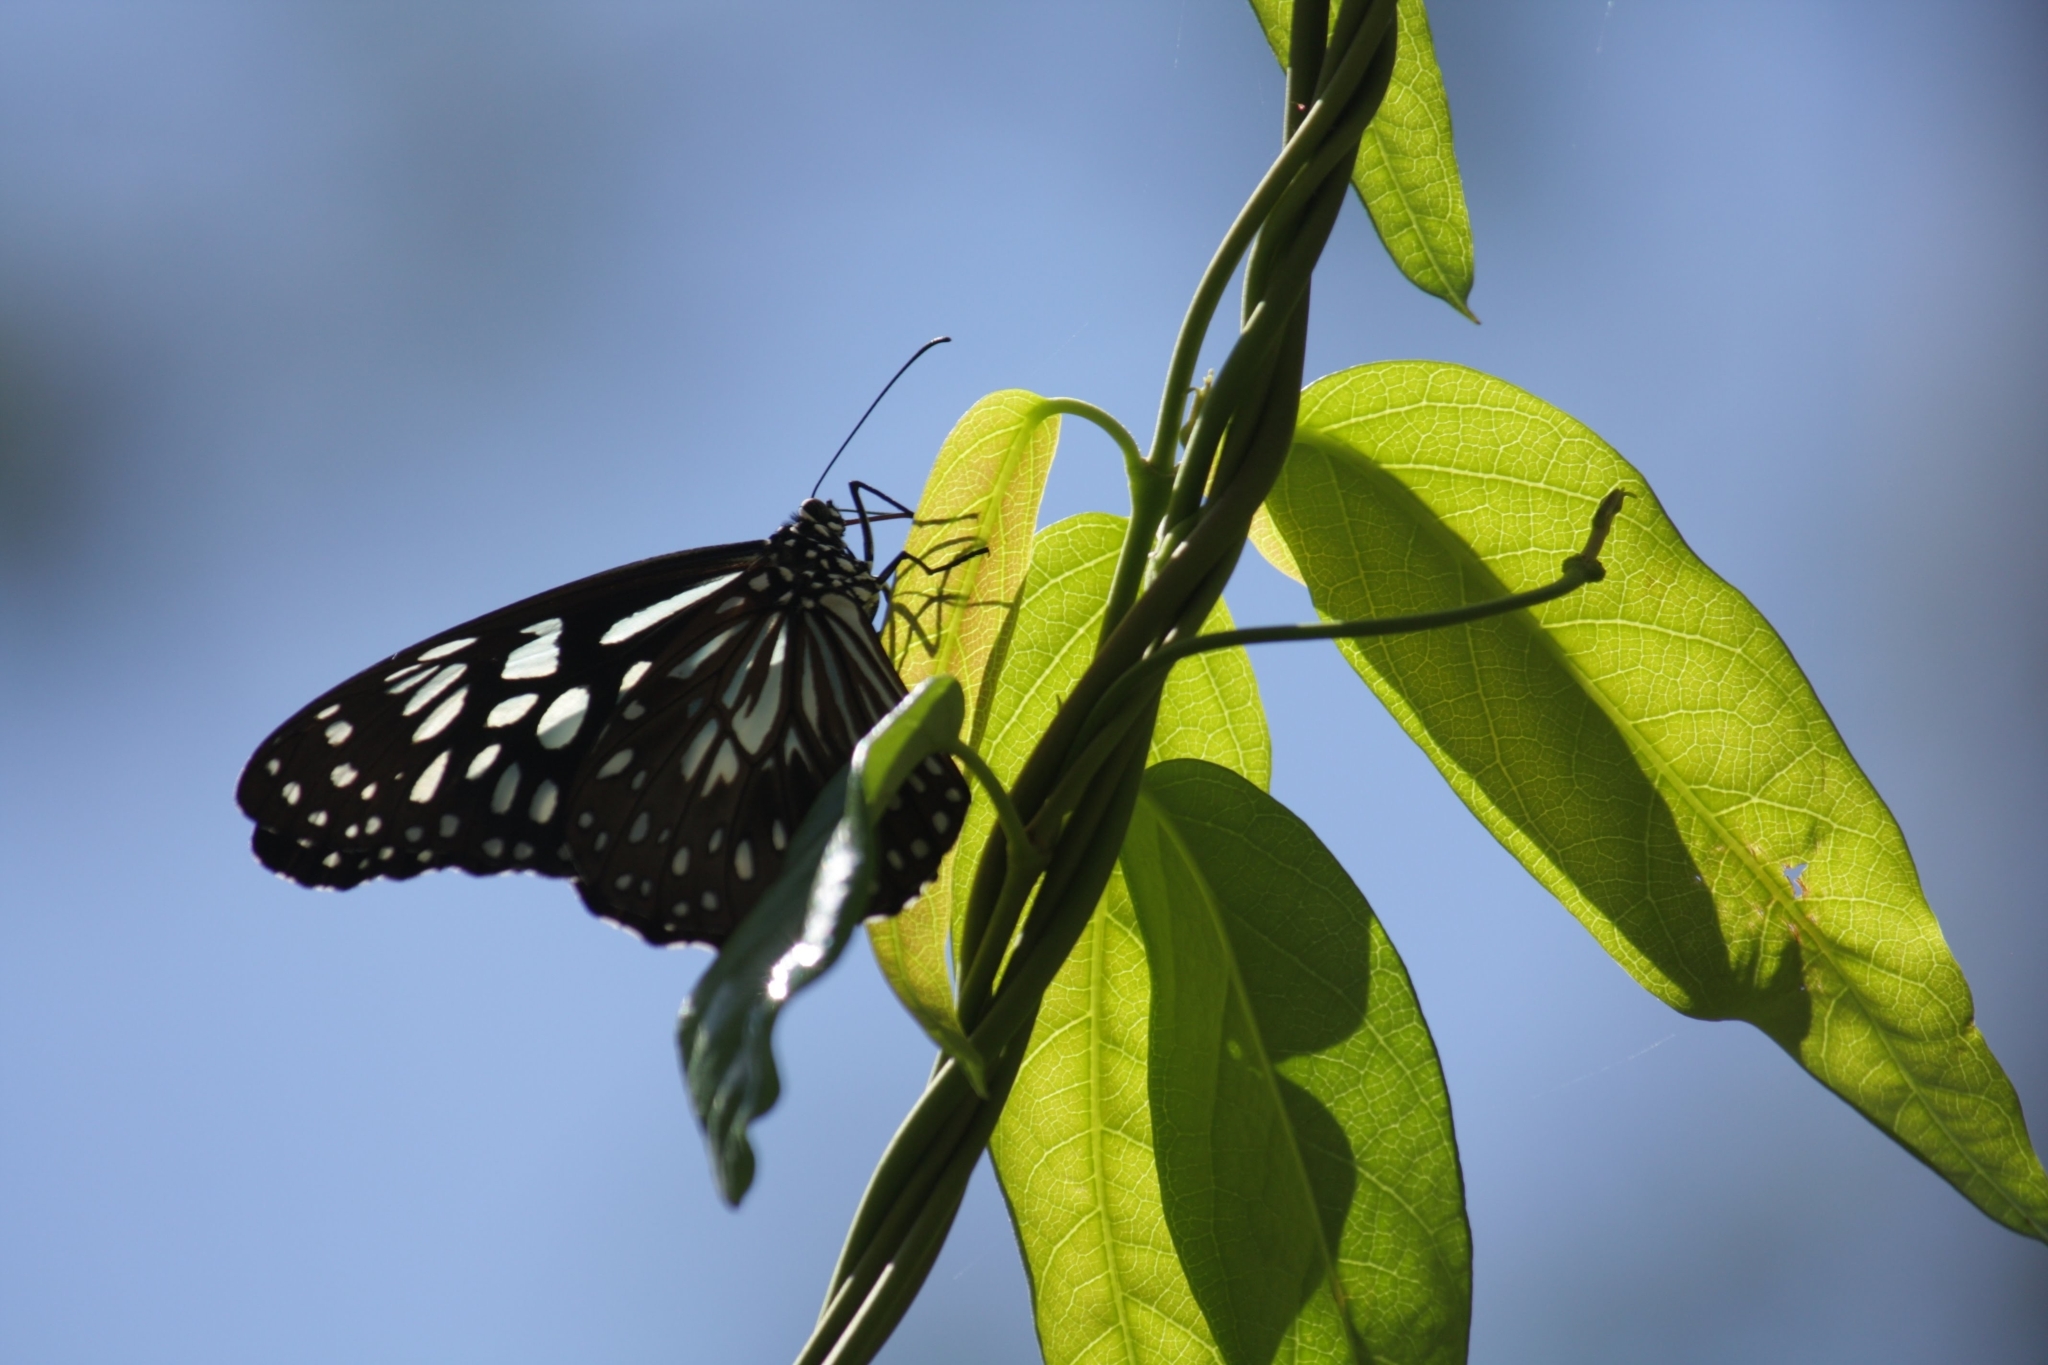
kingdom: Animalia
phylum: Arthropoda
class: Insecta
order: Lepidoptera
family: Nymphalidae
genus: Tirumala
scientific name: Tirumala hamata
